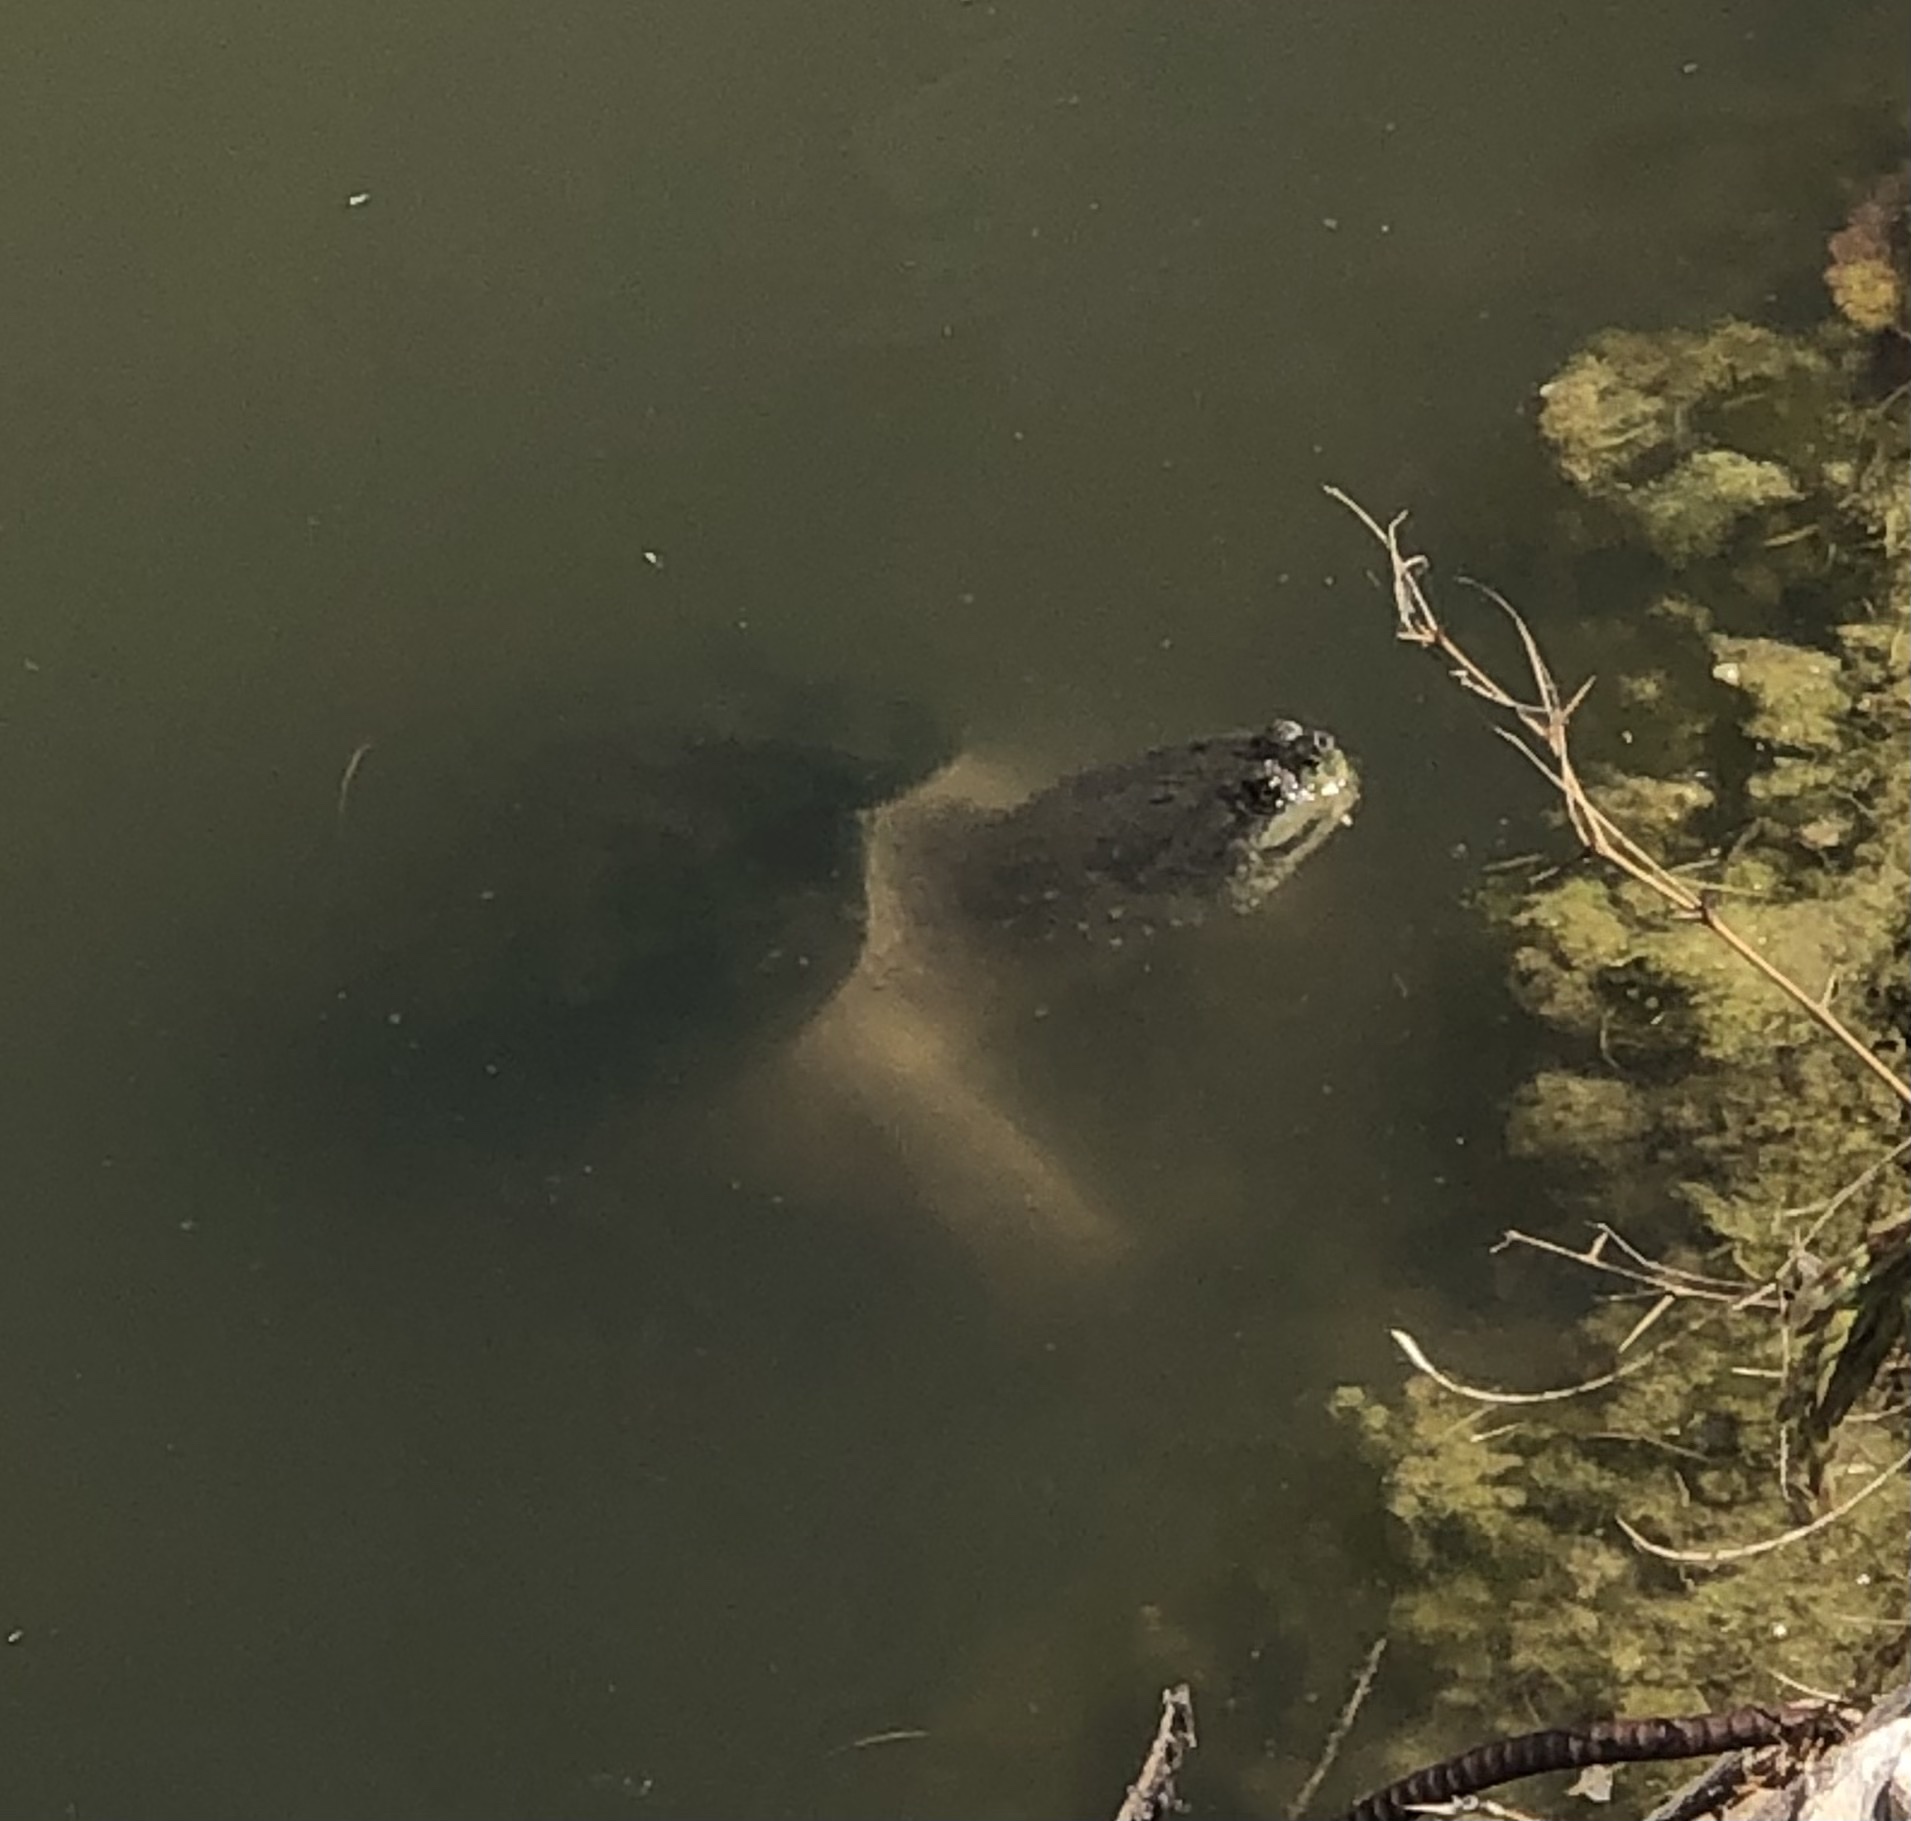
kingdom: Animalia
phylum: Chordata
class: Testudines
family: Chelydridae
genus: Chelydra
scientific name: Chelydra serpentina
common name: Common snapping turtle
